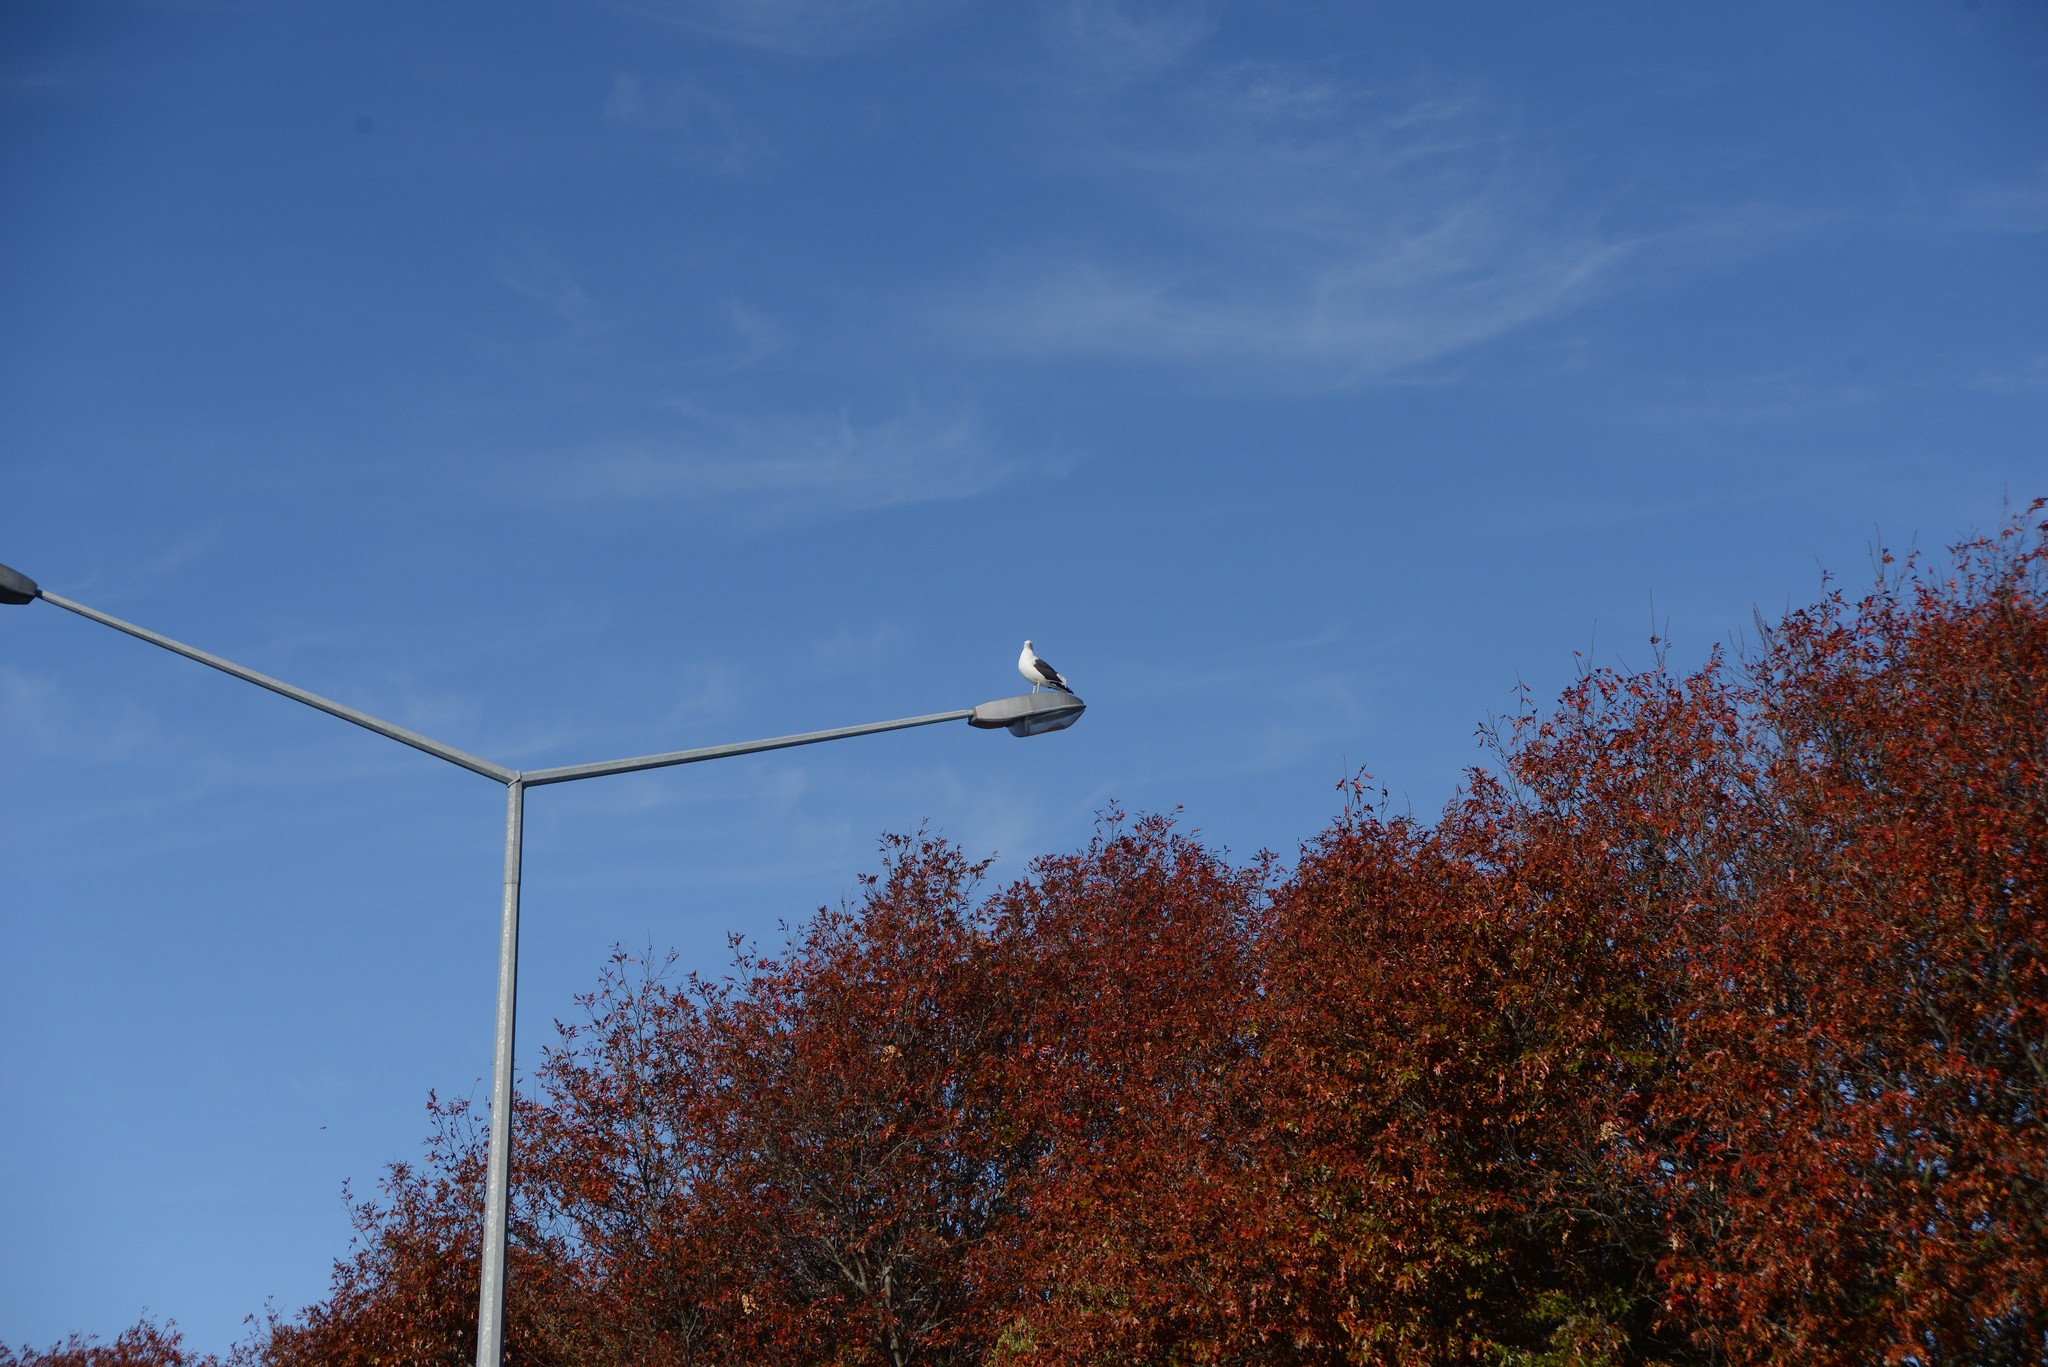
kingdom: Animalia
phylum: Chordata
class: Aves
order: Charadriiformes
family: Laridae
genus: Larus
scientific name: Larus dominicanus
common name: Kelp gull
